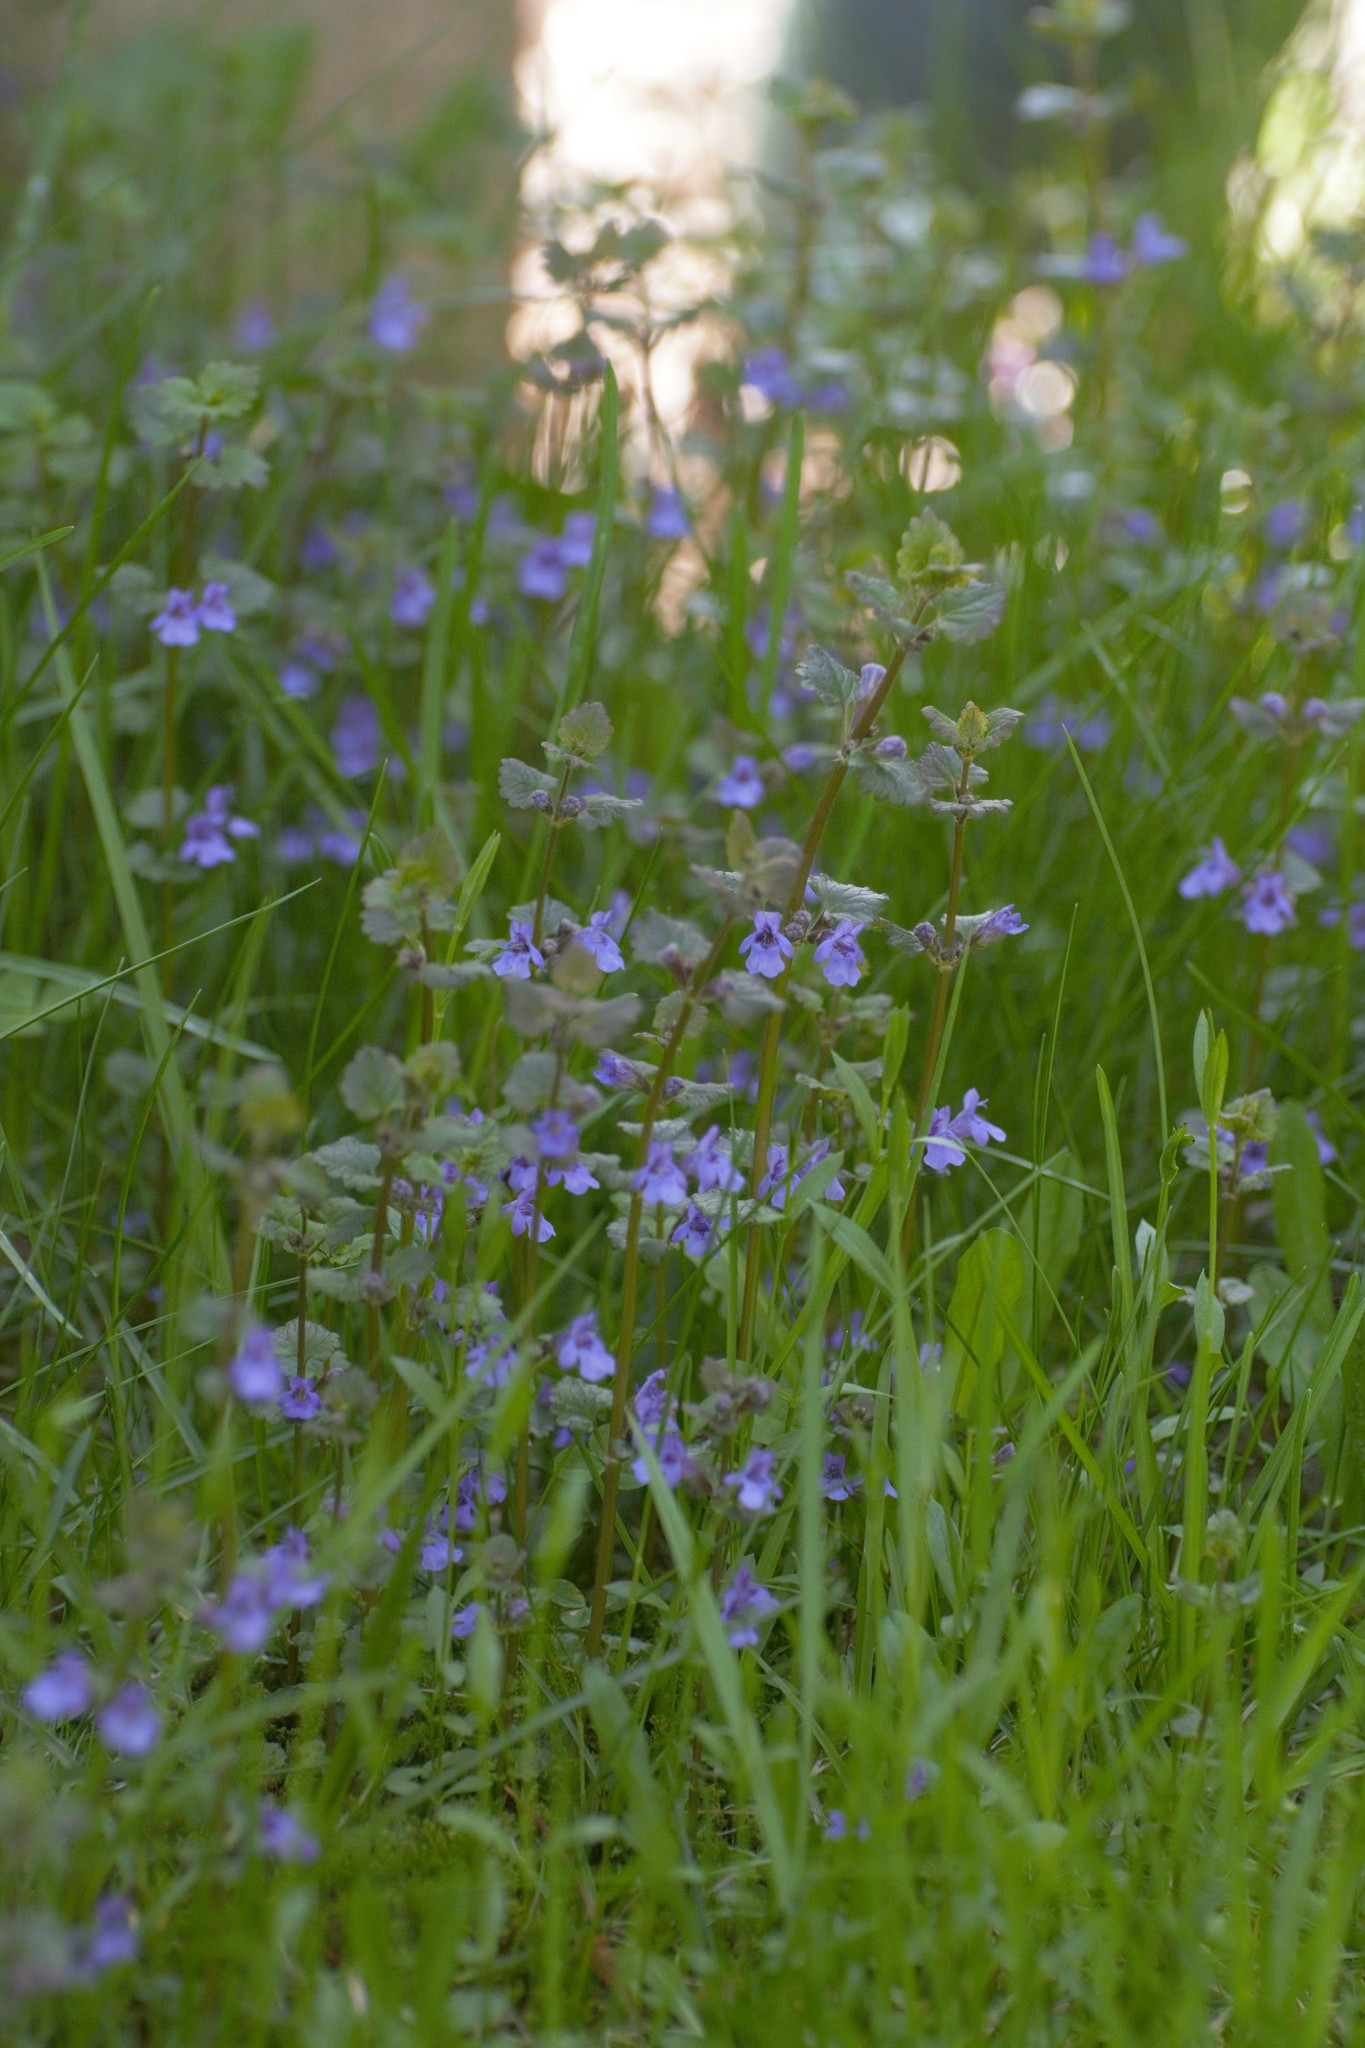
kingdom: Plantae
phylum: Tracheophyta
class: Magnoliopsida
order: Lamiales
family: Lamiaceae
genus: Glechoma
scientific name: Glechoma hederacea
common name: Ground ivy
